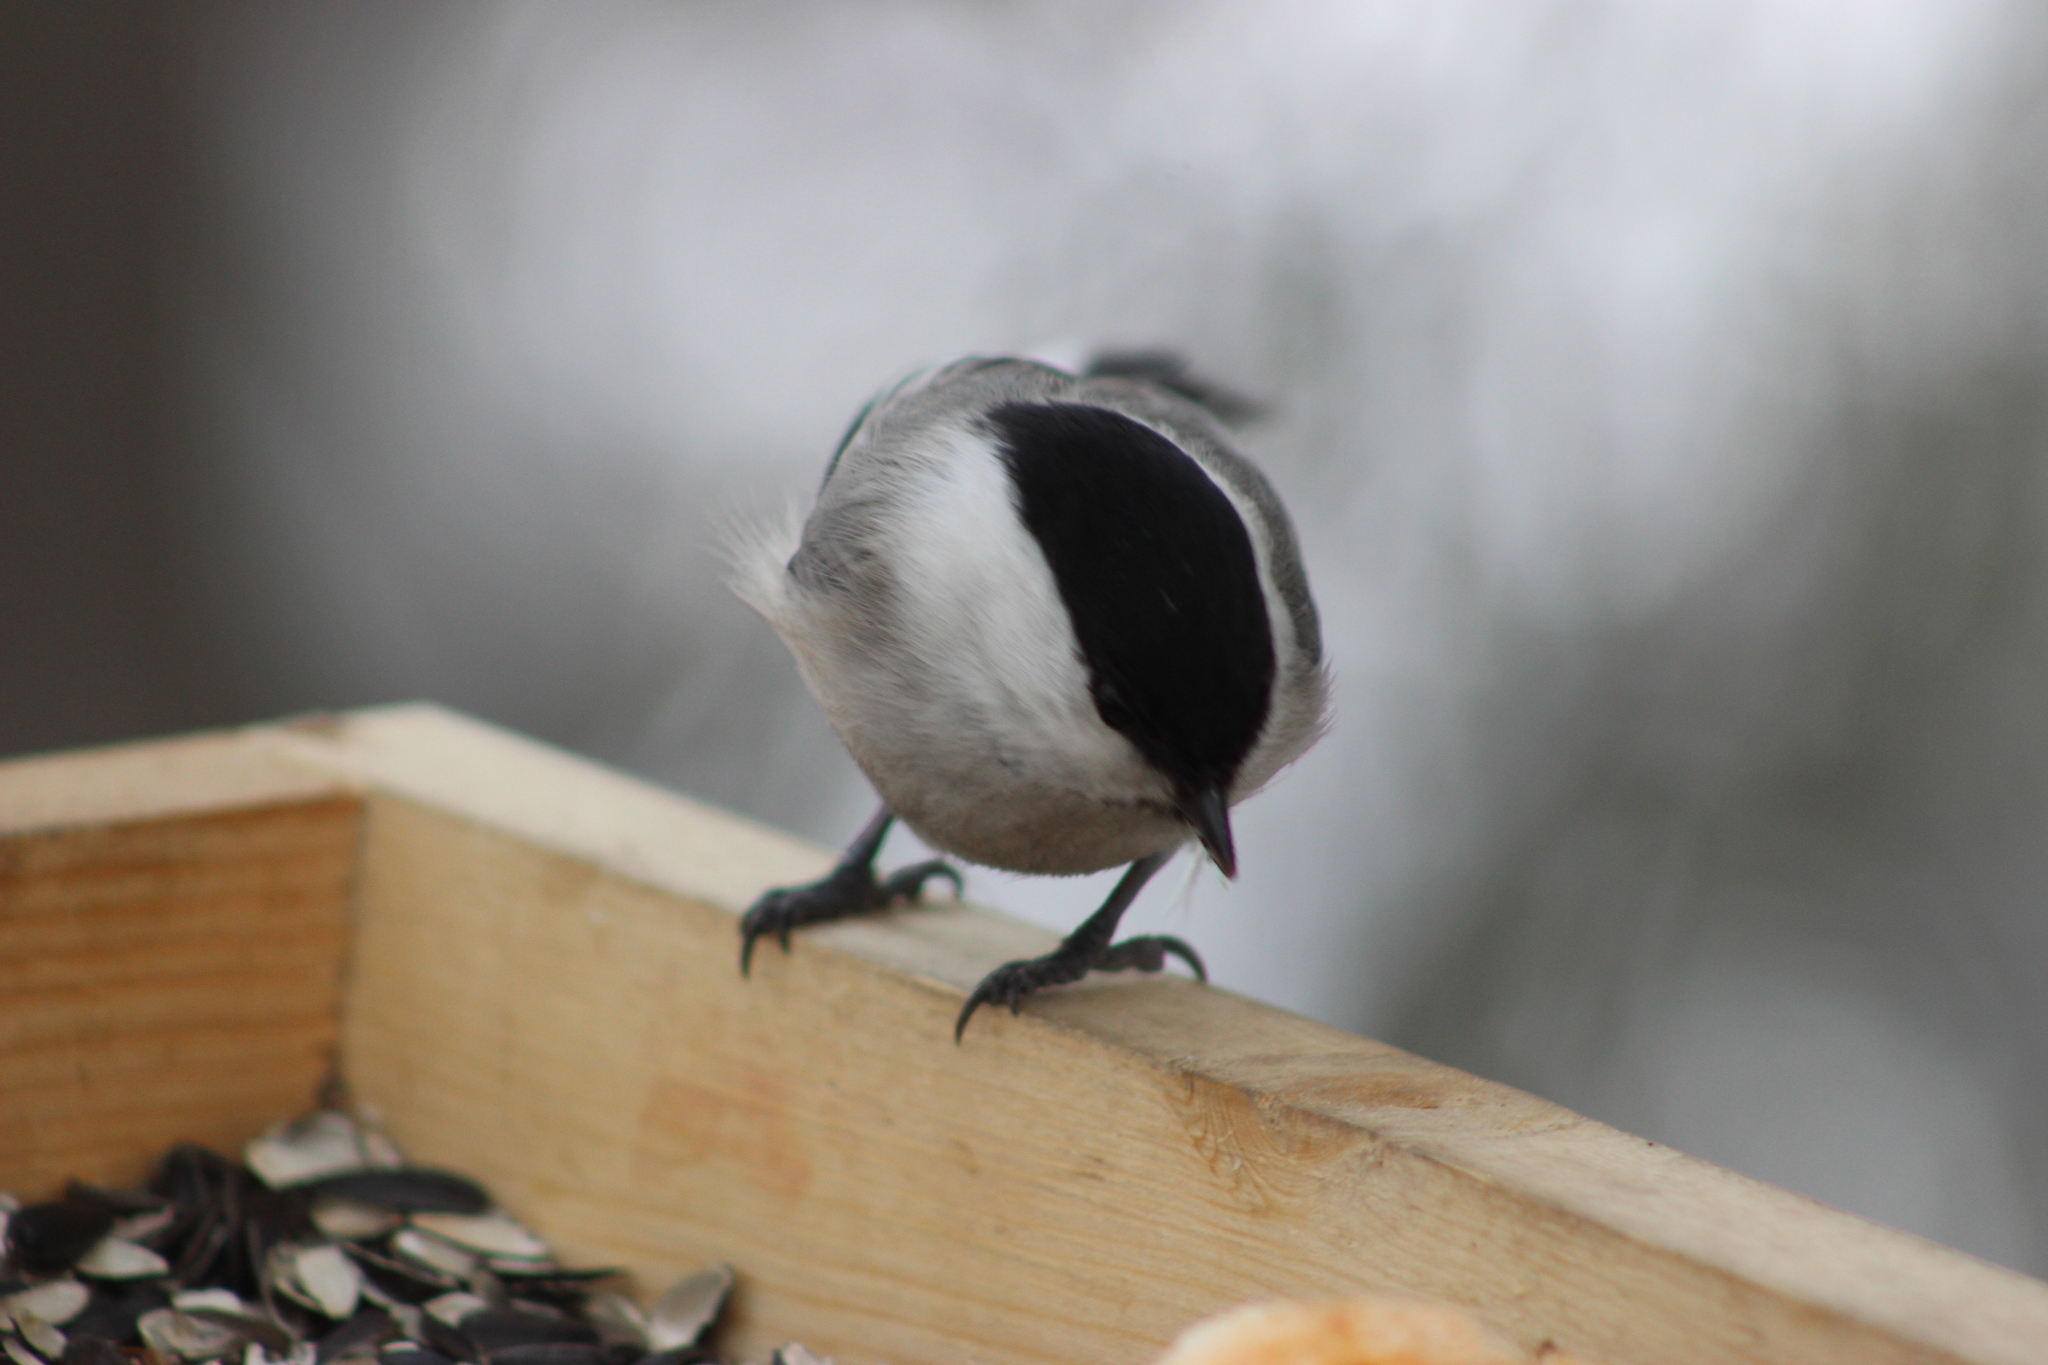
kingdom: Animalia
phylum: Chordata
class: Aves
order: Passeriformes
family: Paridae
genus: Poecile
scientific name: Poecile montanus
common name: Willow tit
